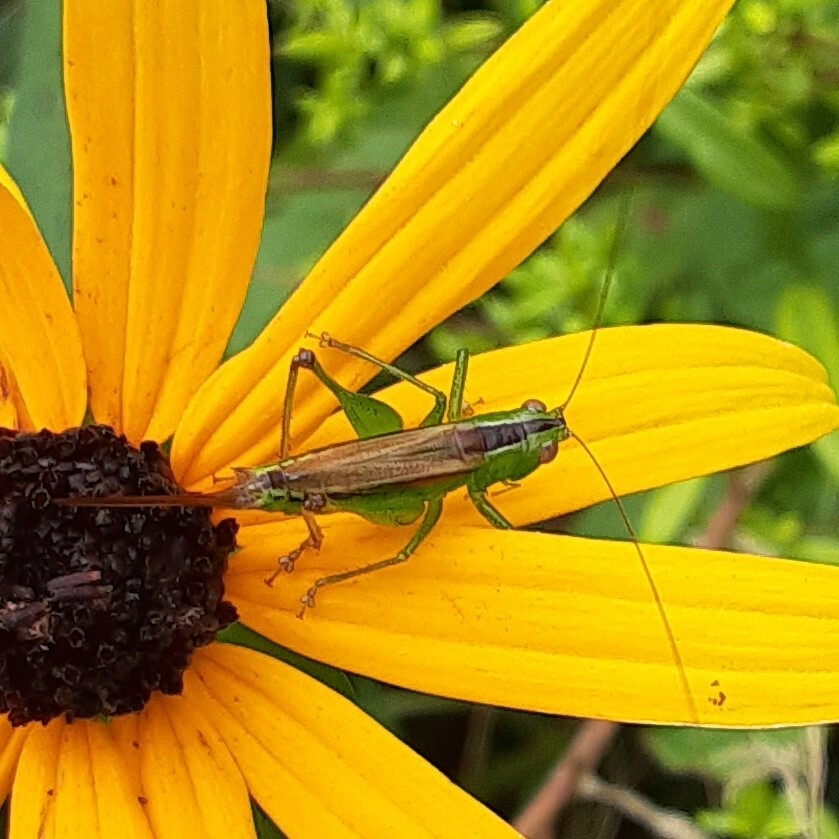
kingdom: Animalia
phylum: Arthropoda
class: Insecta
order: Orthoptera
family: Tettigoniidae
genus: Conocephalus
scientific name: Conocephalus brevipennis
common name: Short-winged meadow katydid
